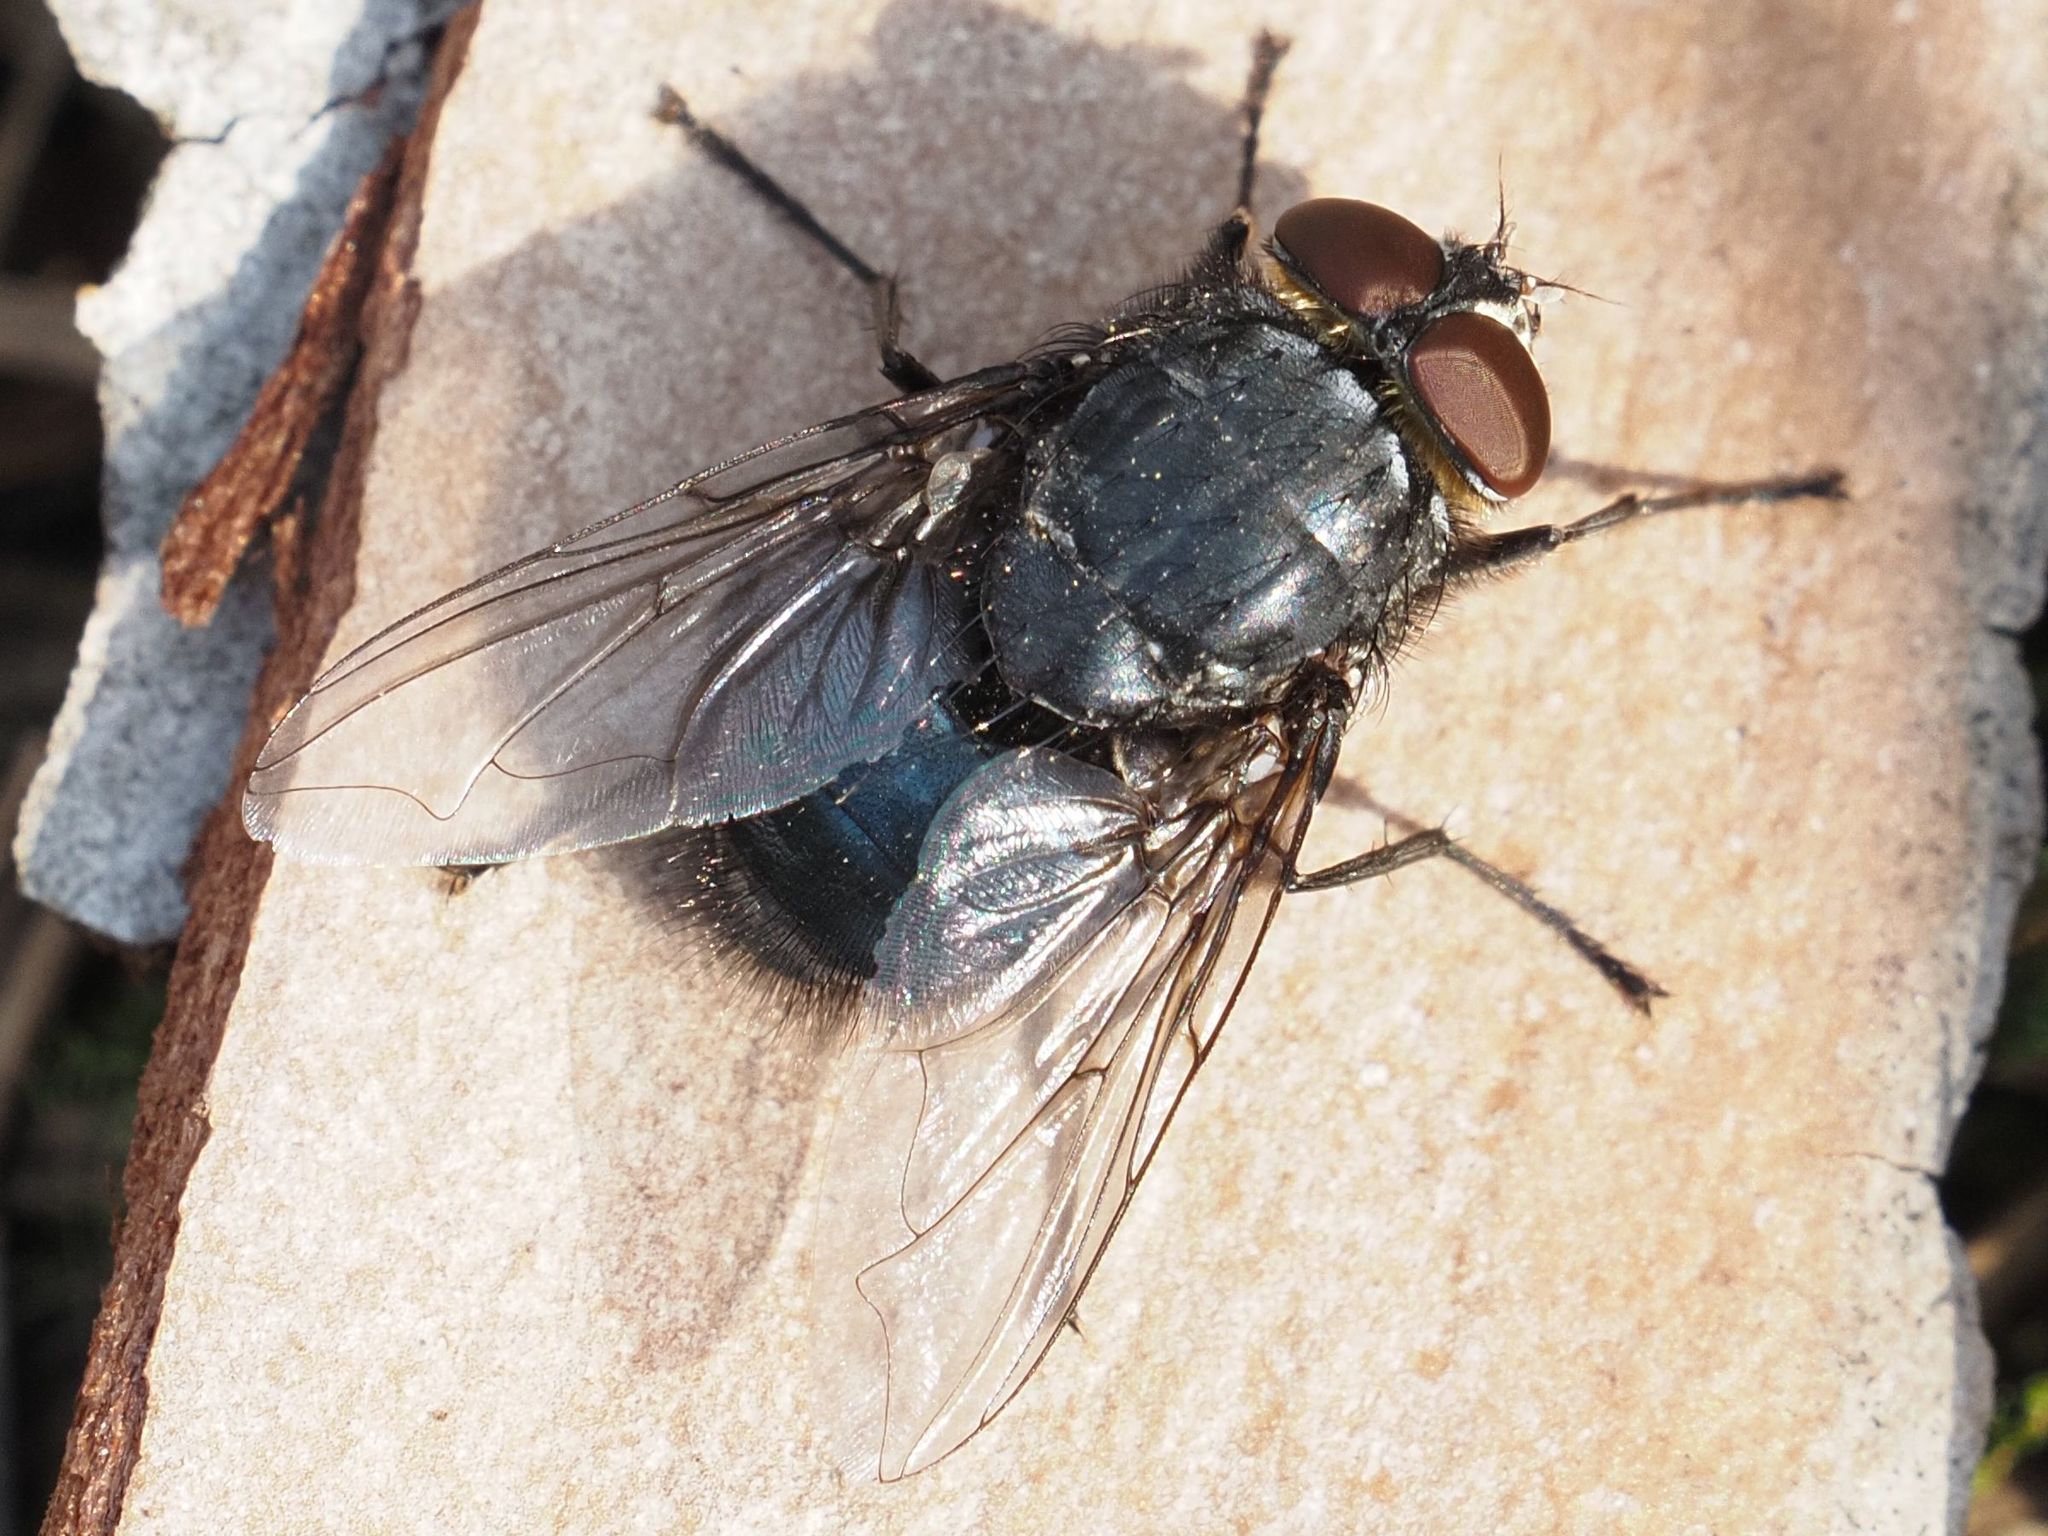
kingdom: Animalia
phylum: Arthropoda
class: Insecta
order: Diptera
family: Calliphoridae
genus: Calliphora
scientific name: Calliphora vomitoria
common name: Blue bottle fly
